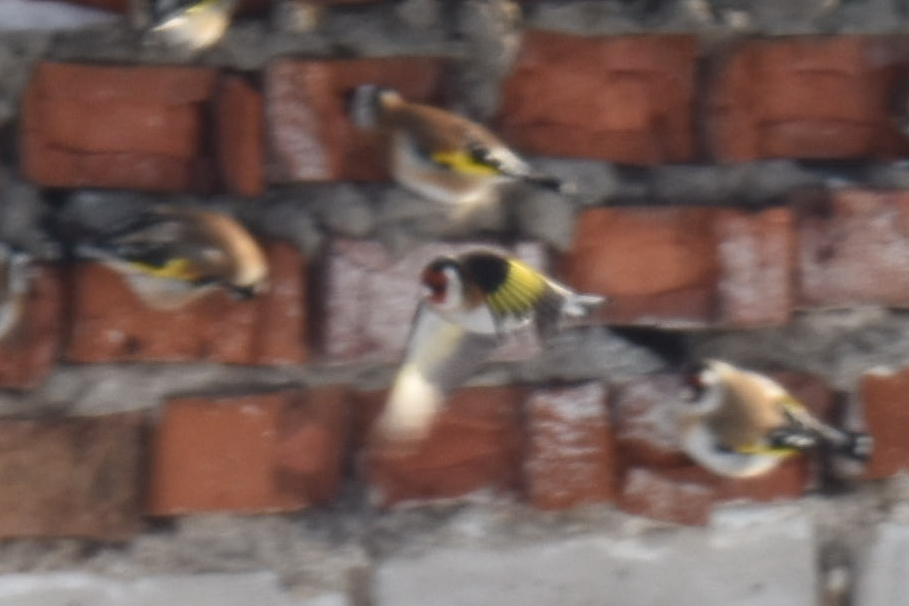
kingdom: Animalia
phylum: Chordata
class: Aves
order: Passeriformes
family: Fringillidae
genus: Carduelis
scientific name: Carduelis carduelis
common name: European goldfinch
